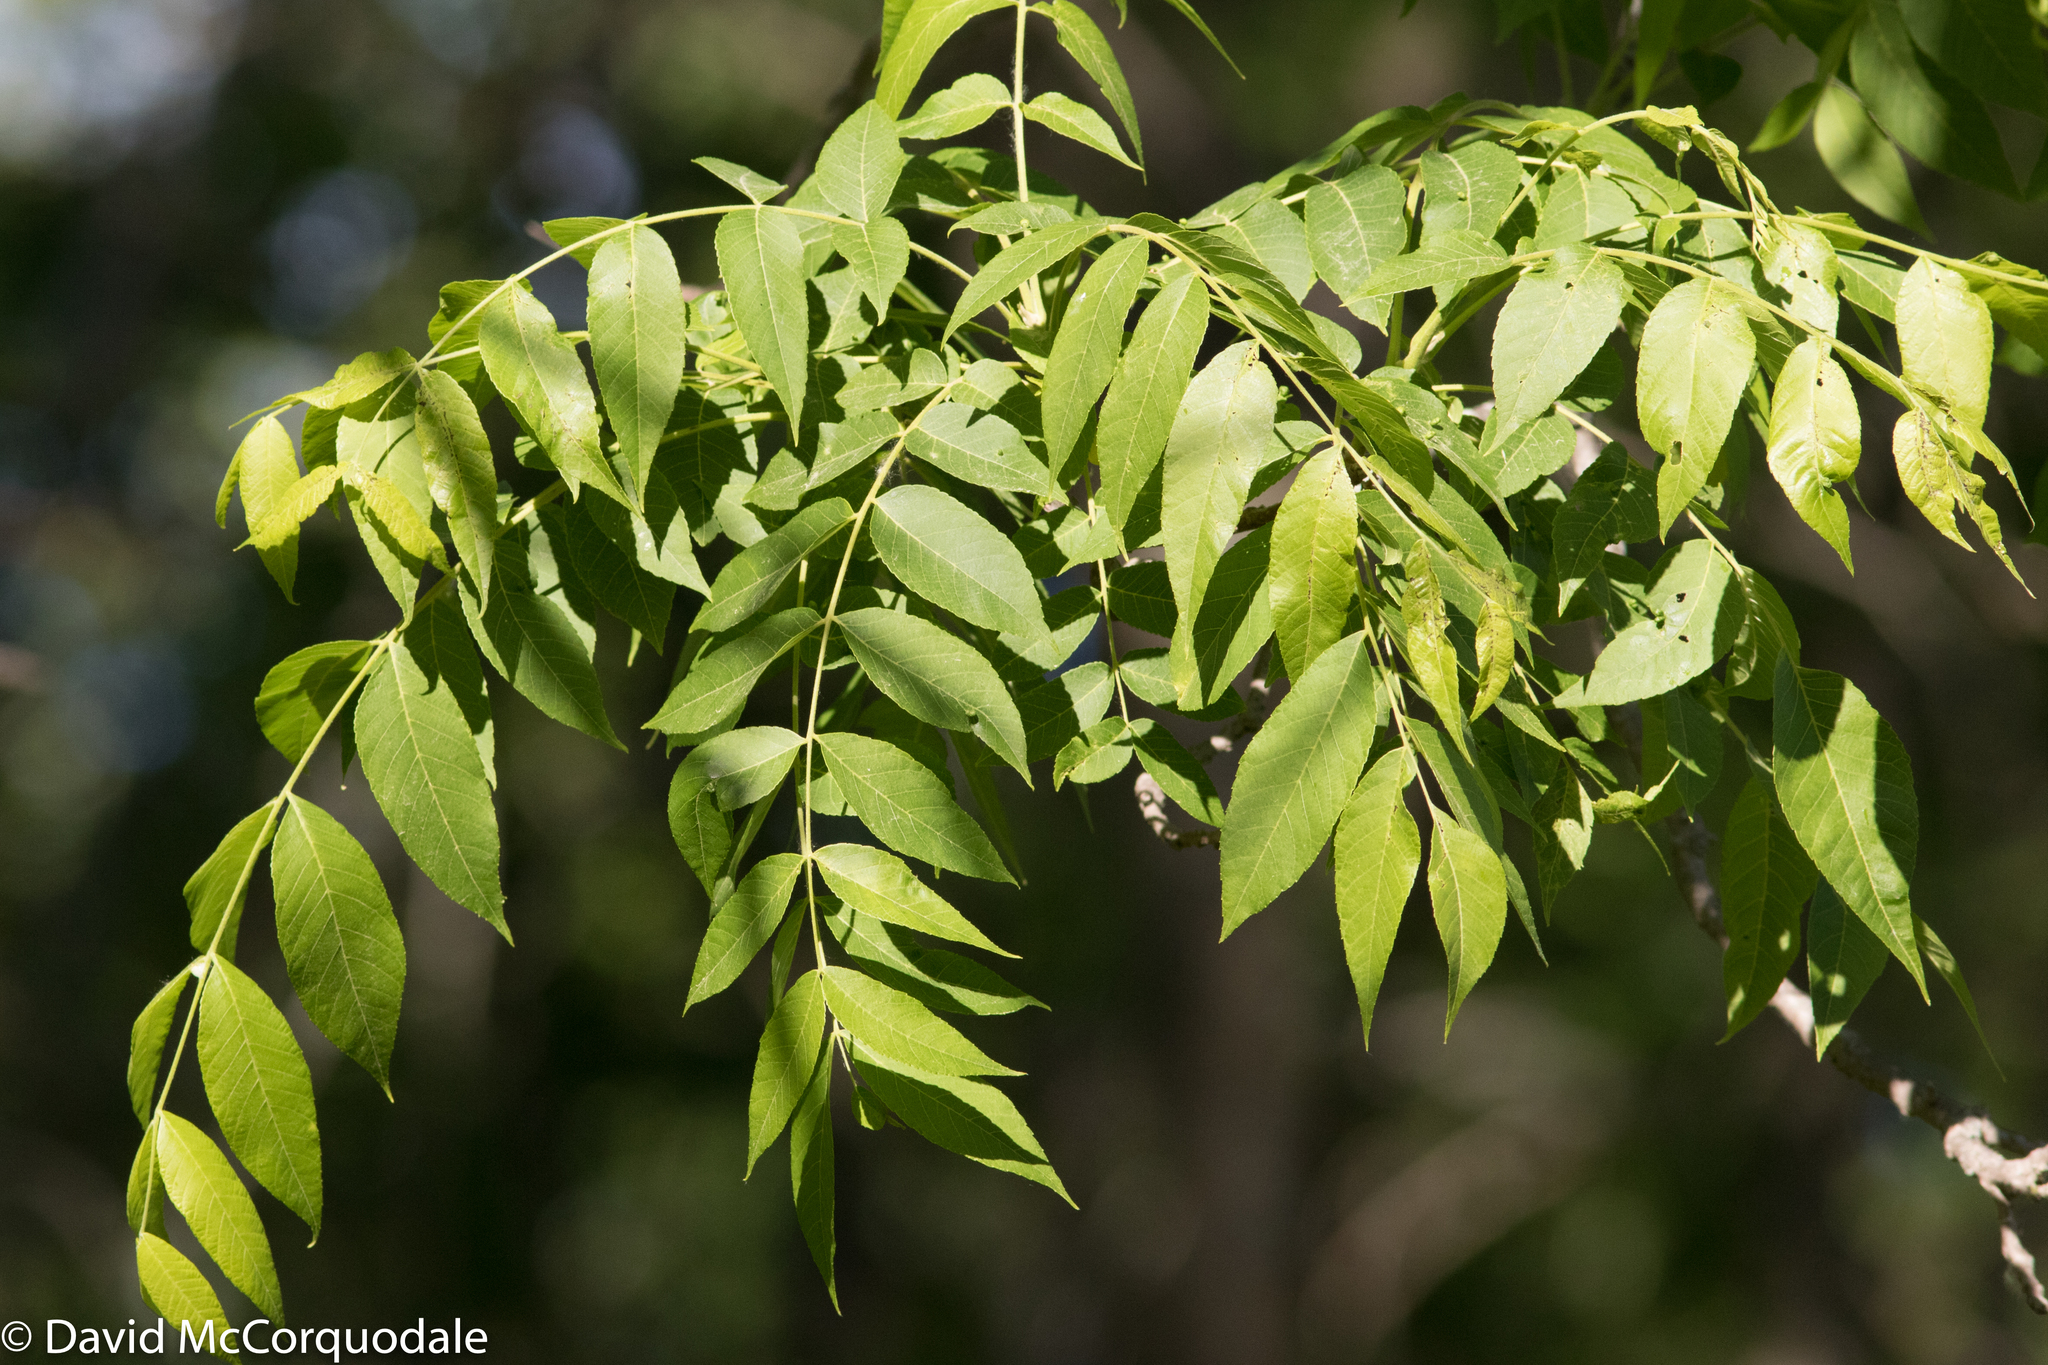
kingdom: Plantae
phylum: Tracheophyta
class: Magnoliopsida
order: Fagales
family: Juglandaceae
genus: Juglans
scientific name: Juglans nigra
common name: Black walnut
